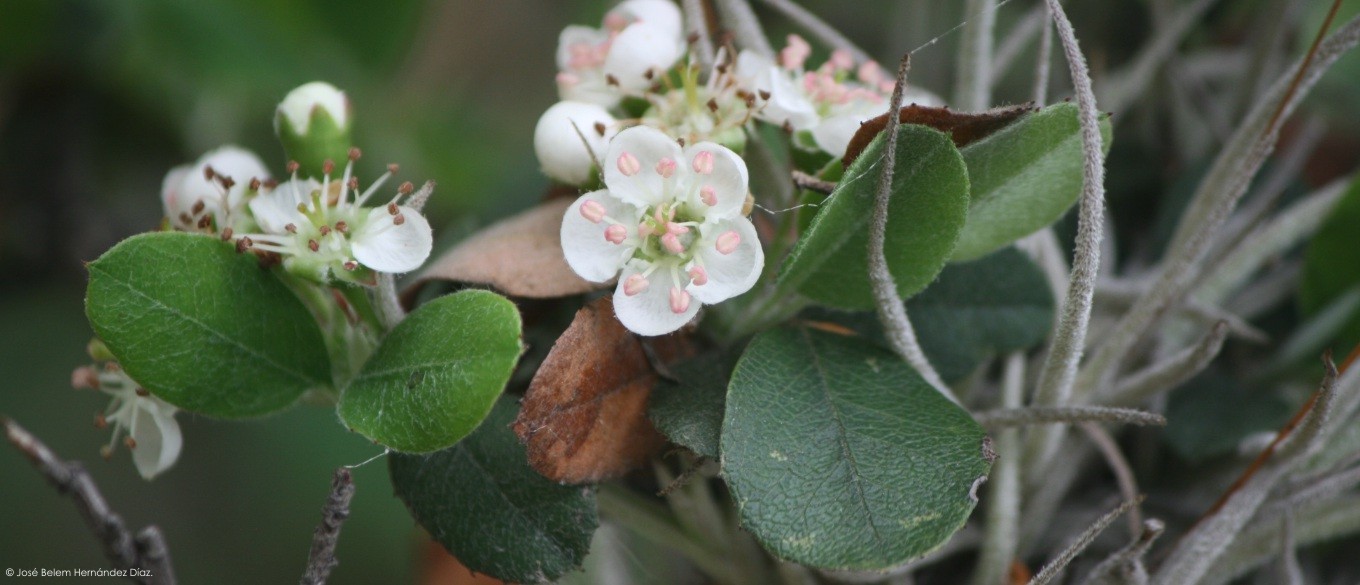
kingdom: Plantae
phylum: Tracheophyta
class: Magnoliopsida
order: Rosales
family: Rosaceae
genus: Malacomeles
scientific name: Malacomeles denticulata
